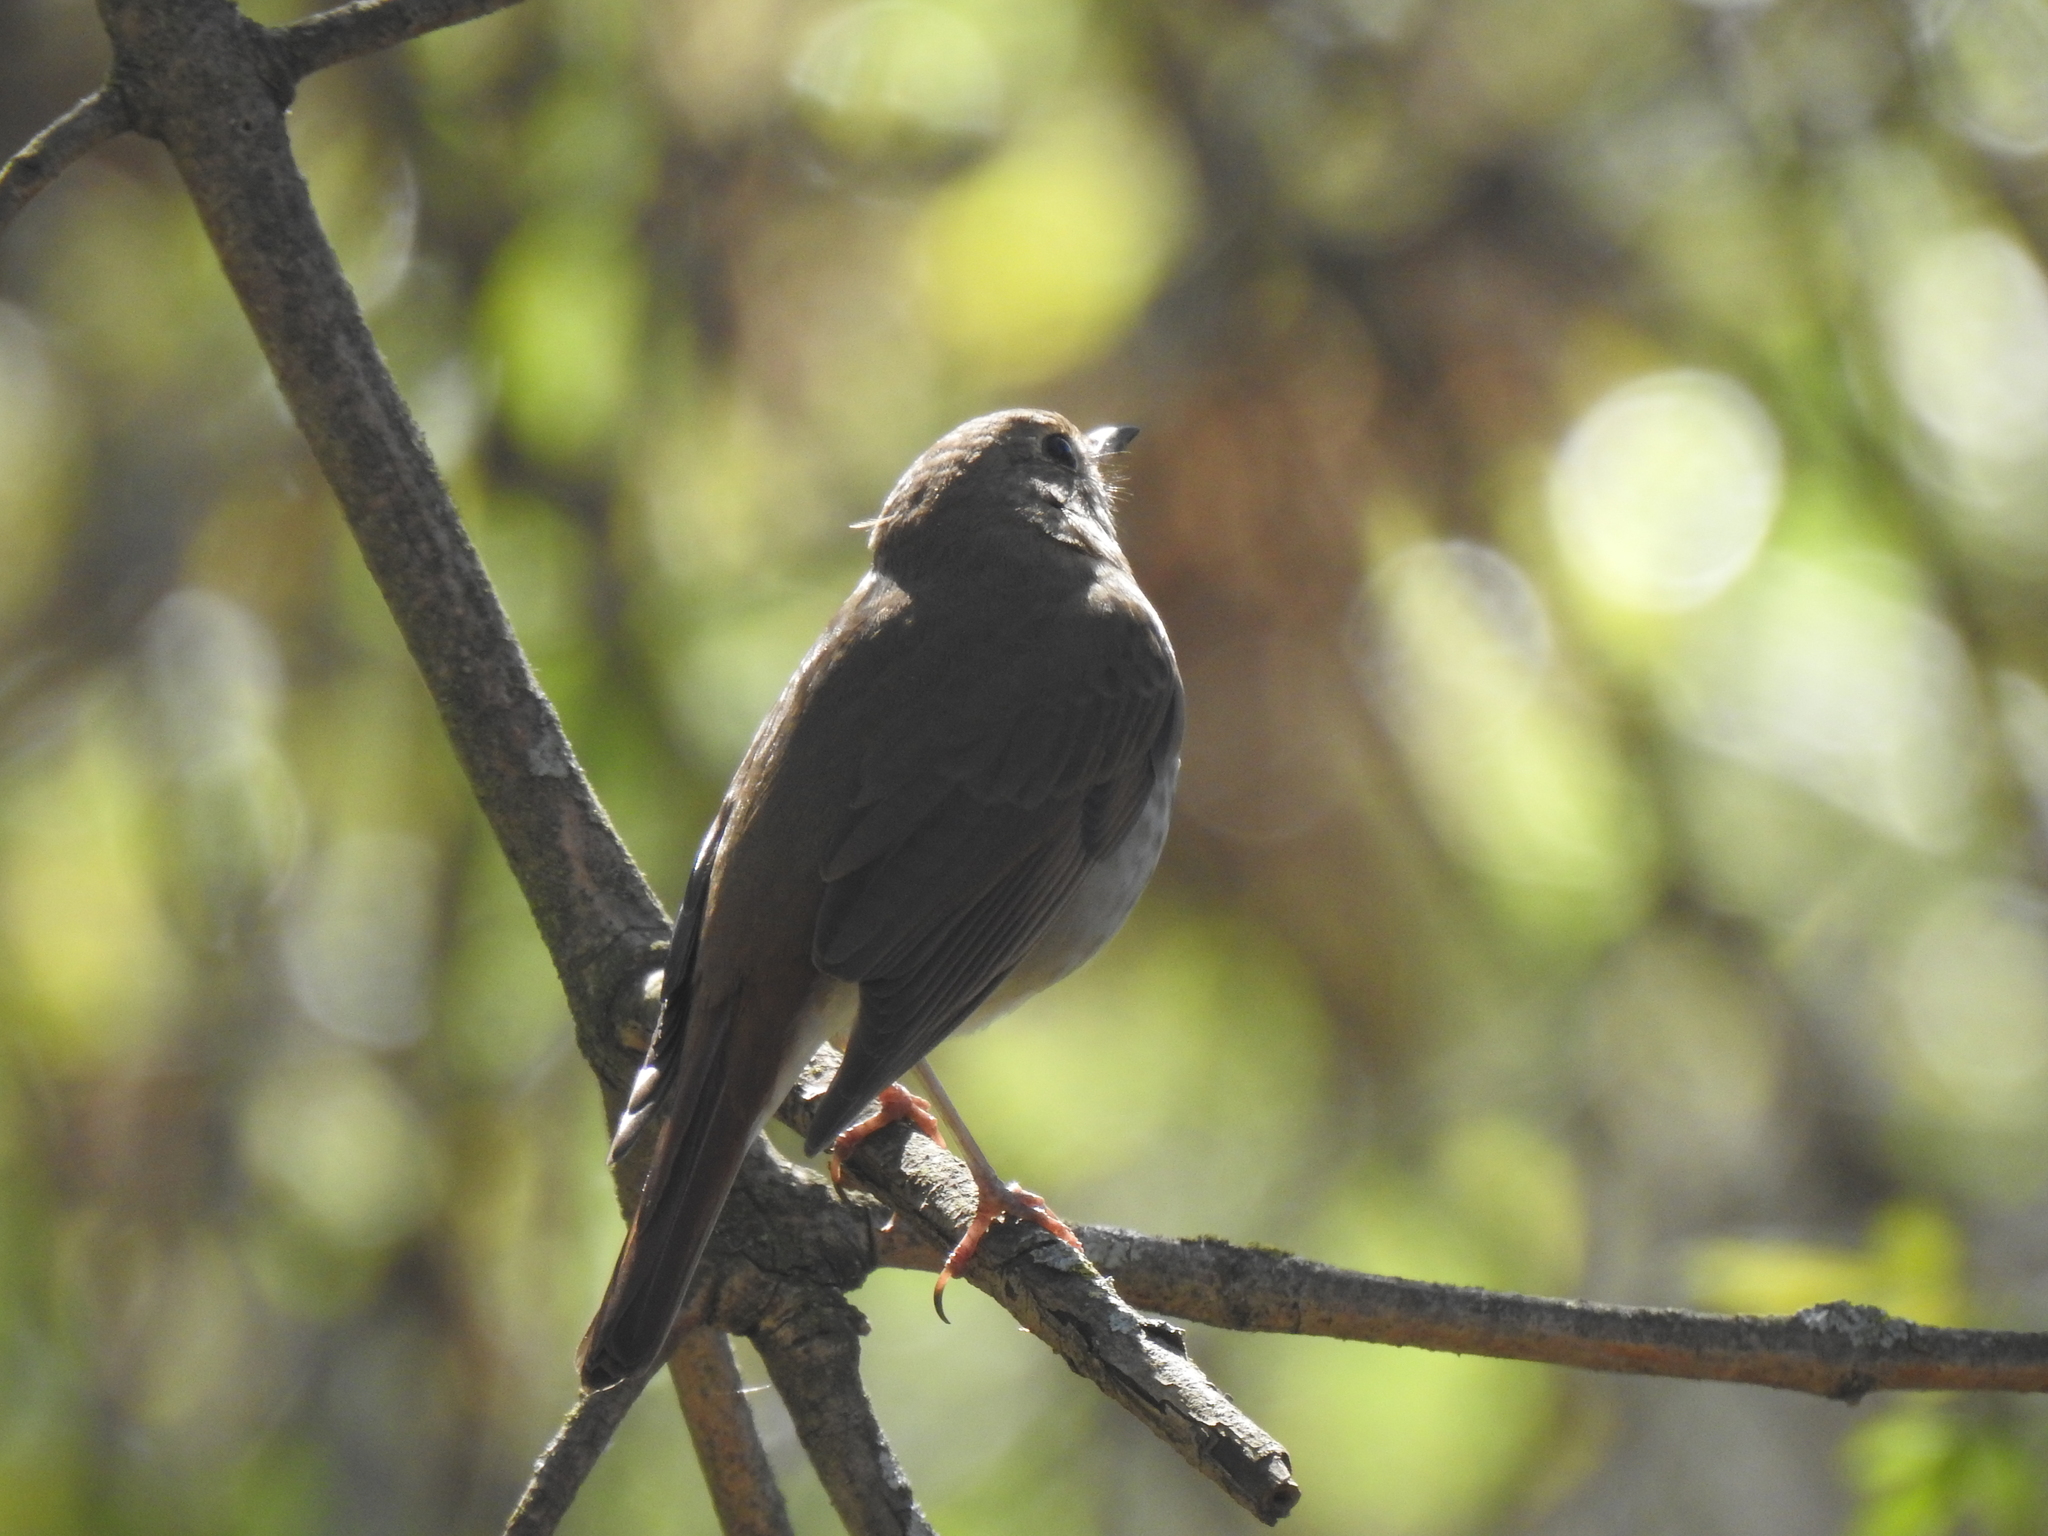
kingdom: Animalia
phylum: Chordata
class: Aves
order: Passeriformes
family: Turdidae
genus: Catharus
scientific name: Catharus guttatus
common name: Hermit thrush
